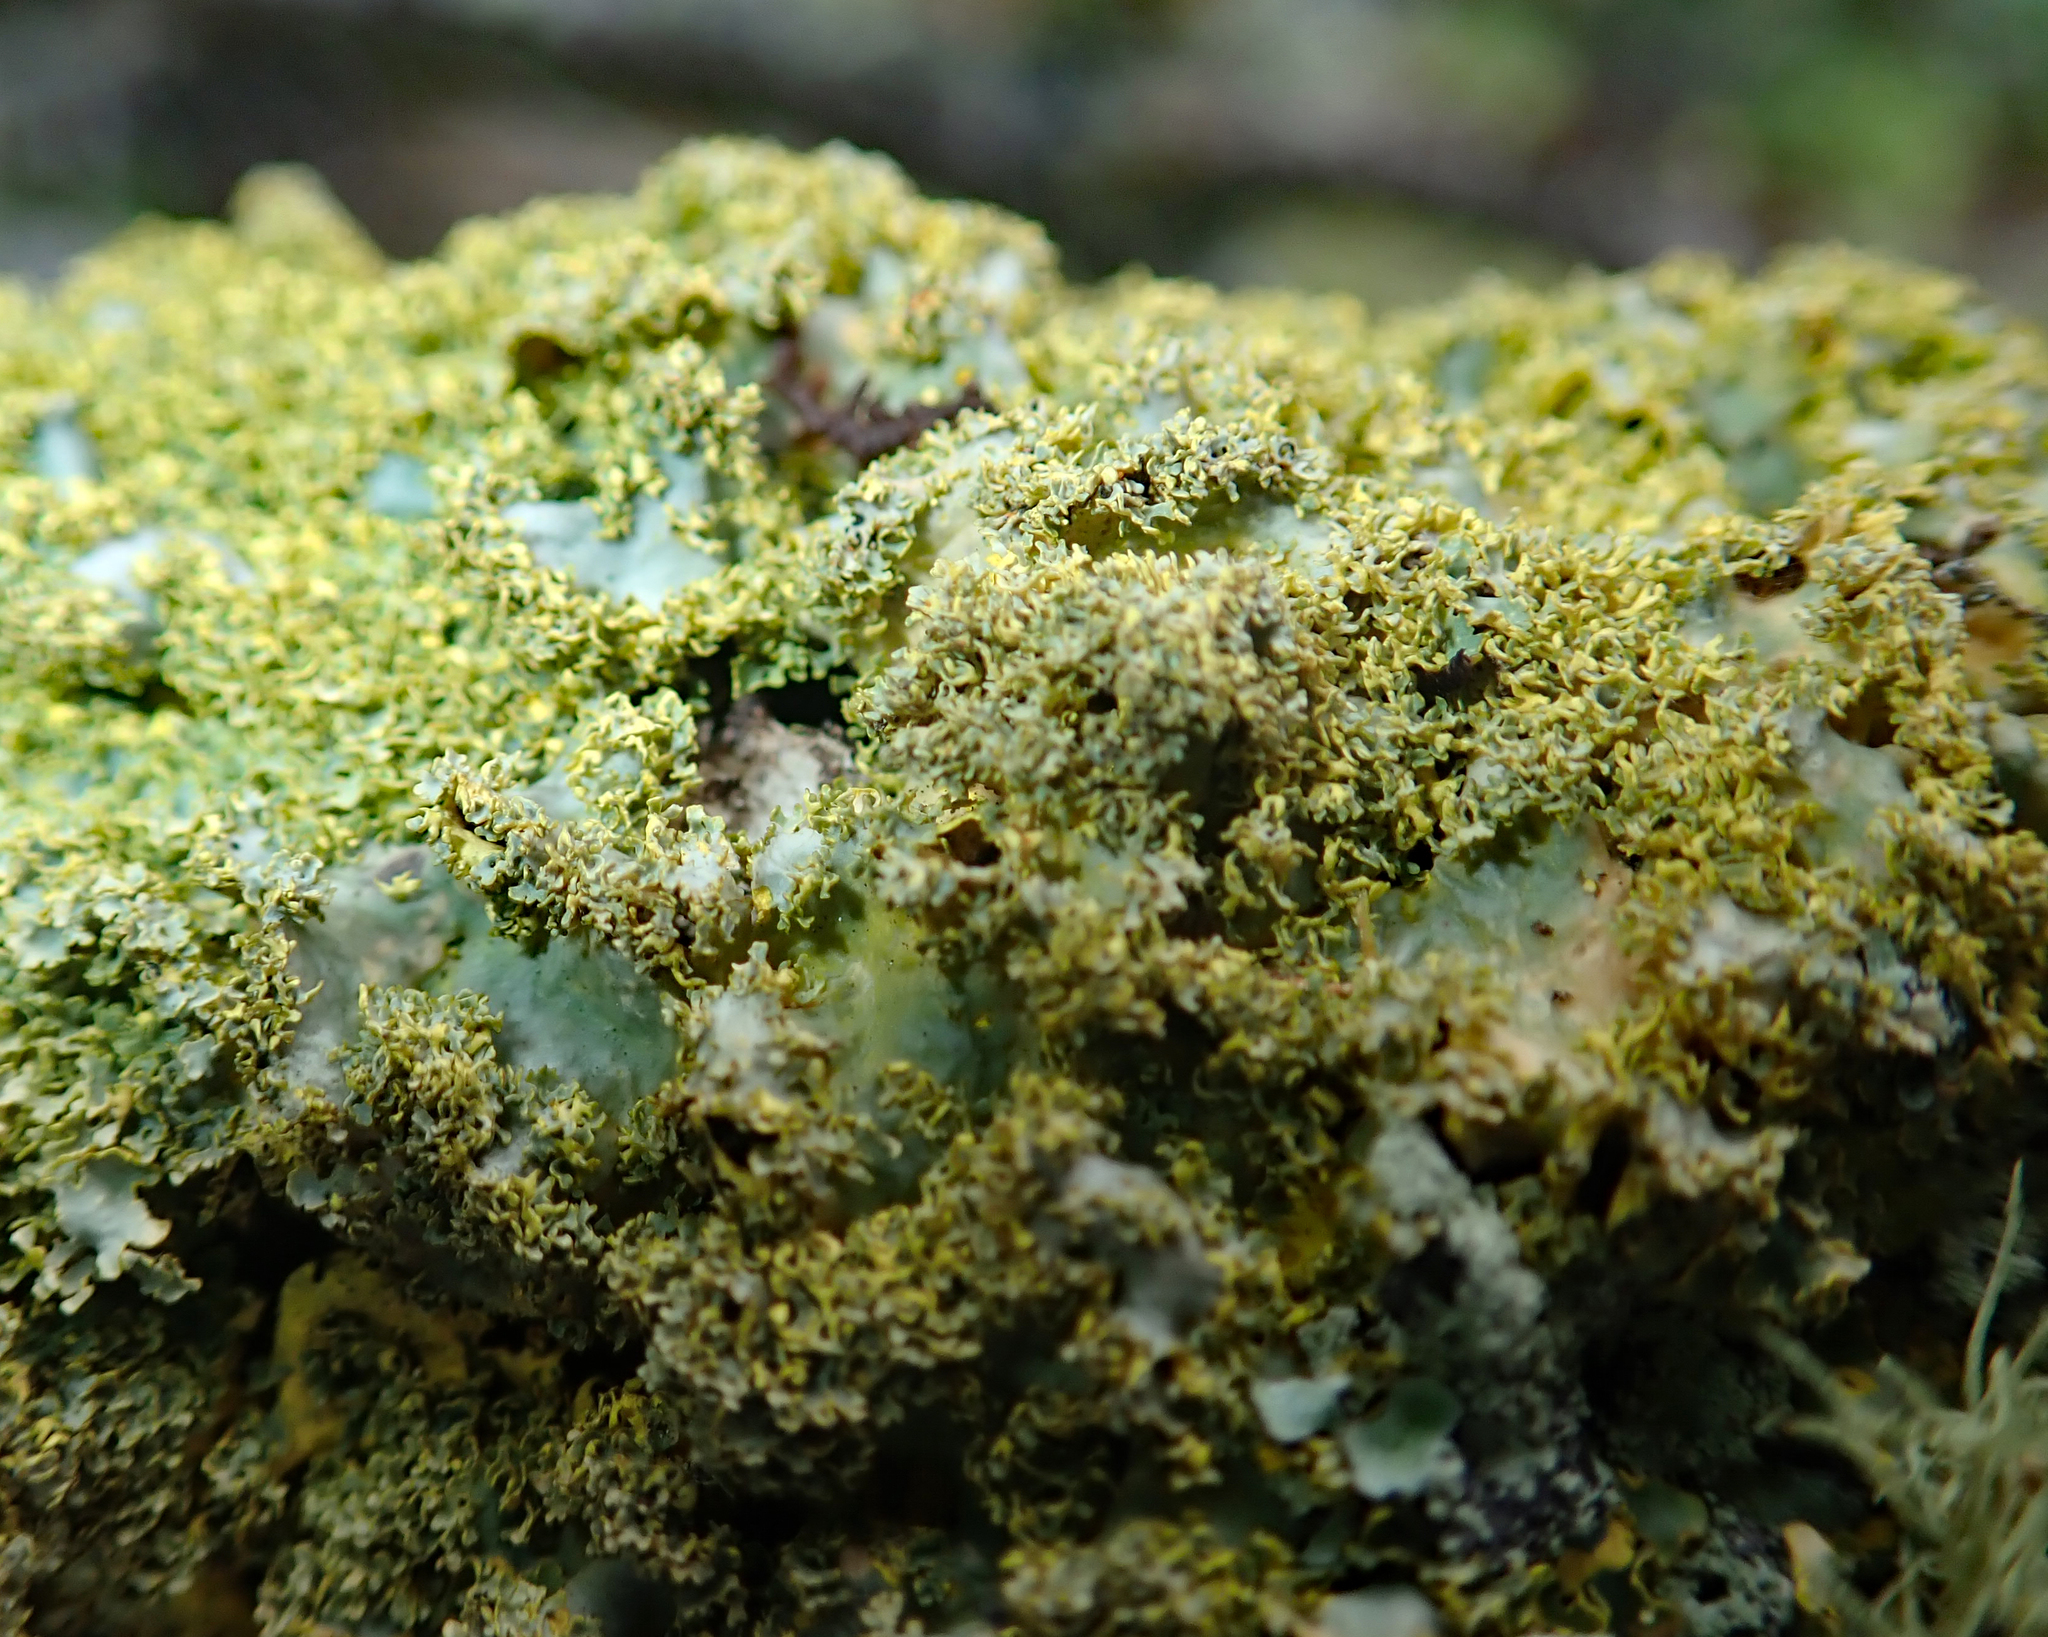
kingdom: Fungi
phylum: Ascomycota
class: Lecanoromycetes
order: Peltigerales
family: Lobariaceae
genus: Podostictina
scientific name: Podostictina pickeringii
